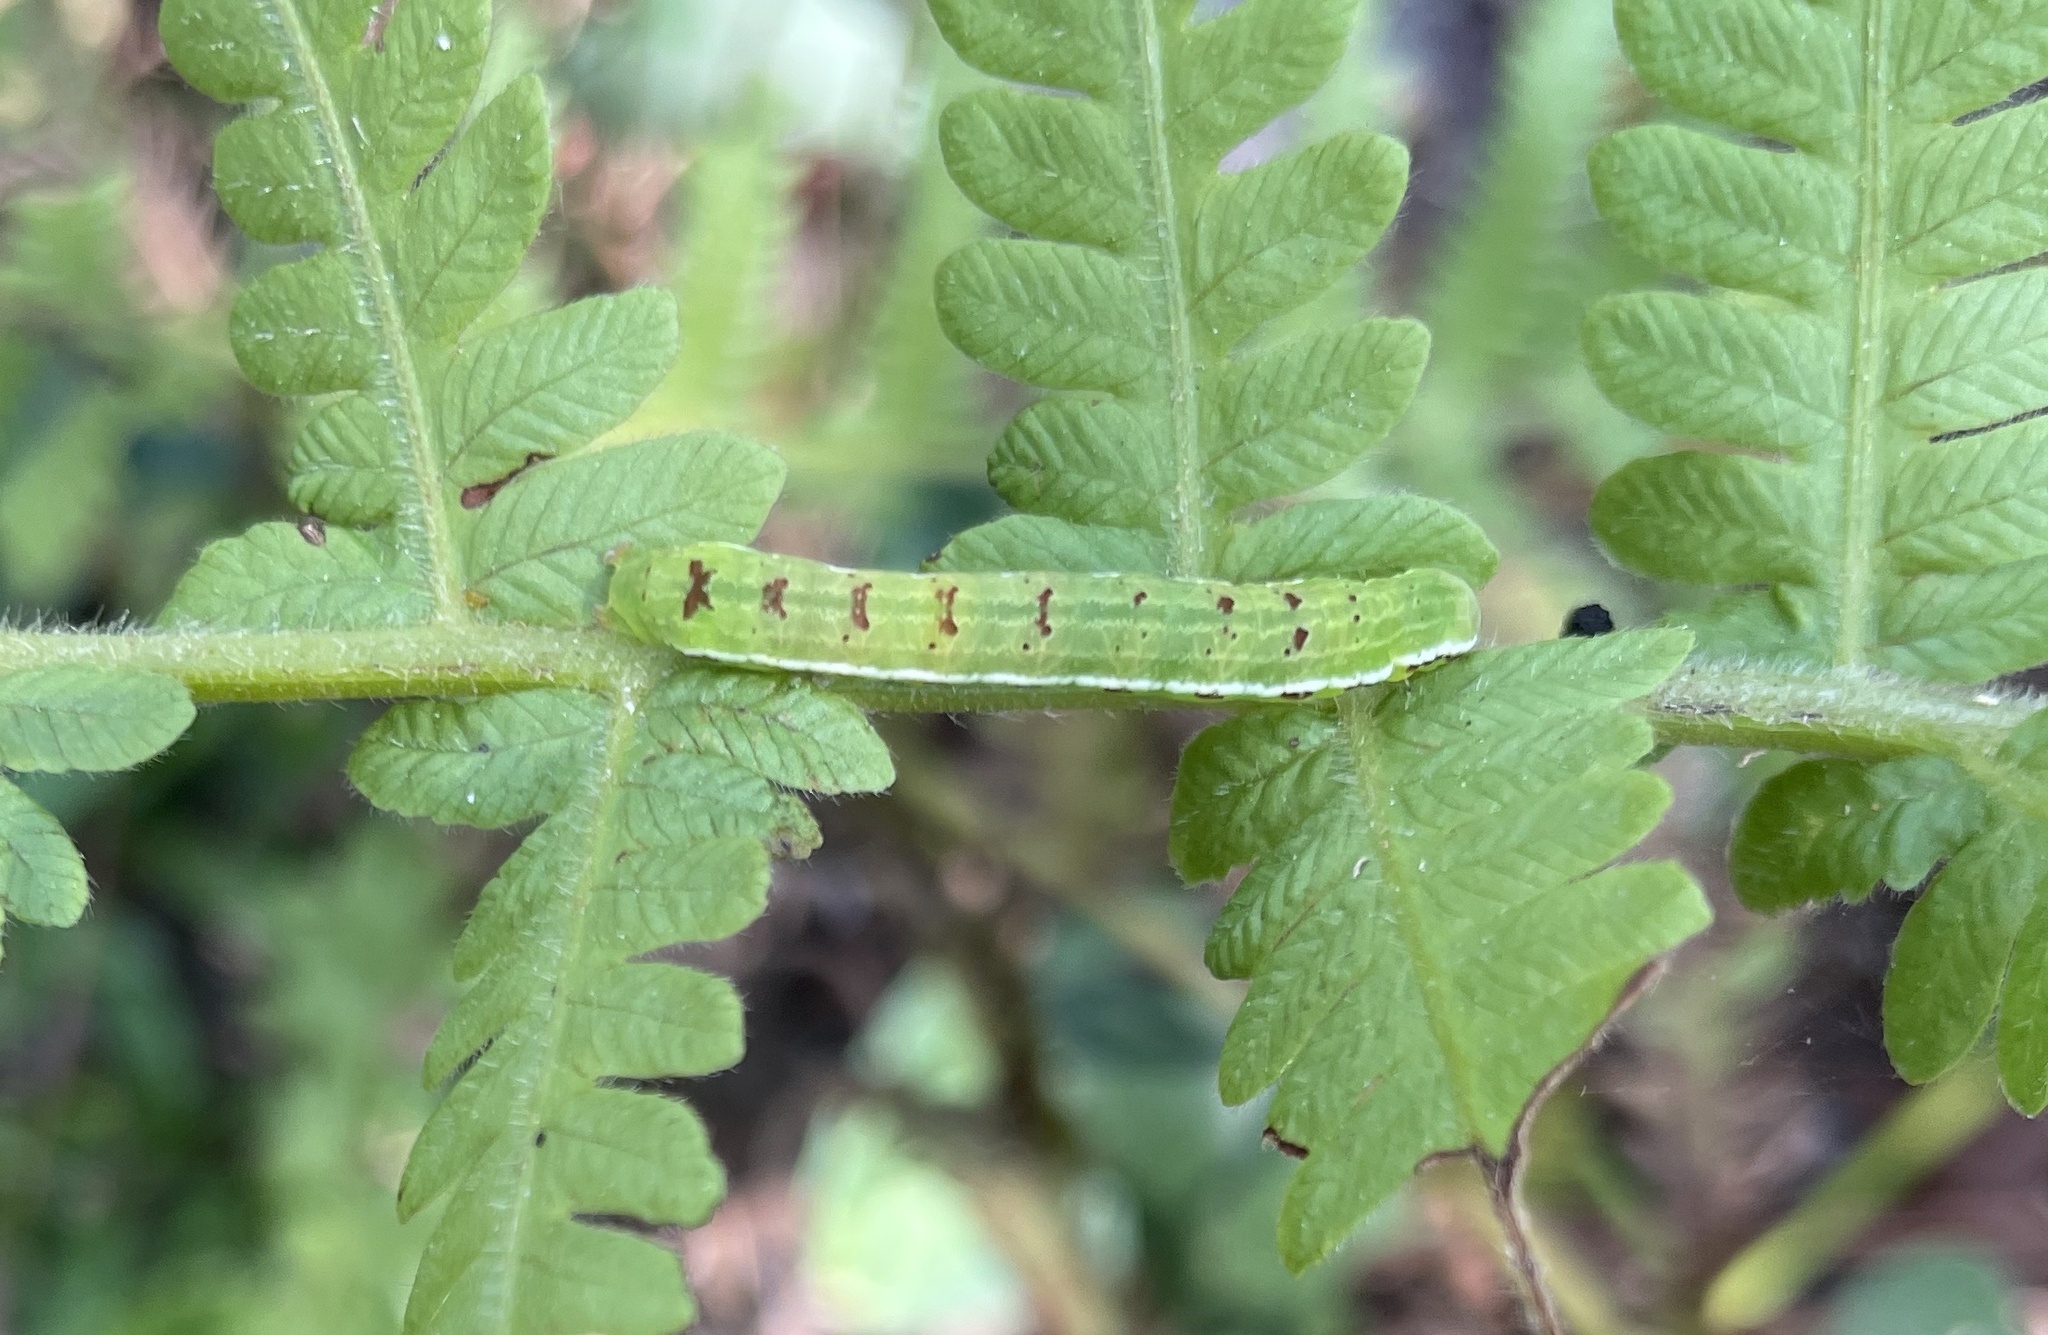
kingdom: Animalia
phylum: Arthropoda
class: Insecta
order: Lepidoptera
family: Noctuidae
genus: Callopistria
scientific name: Callopistria floridensis
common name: Florida fern moth
